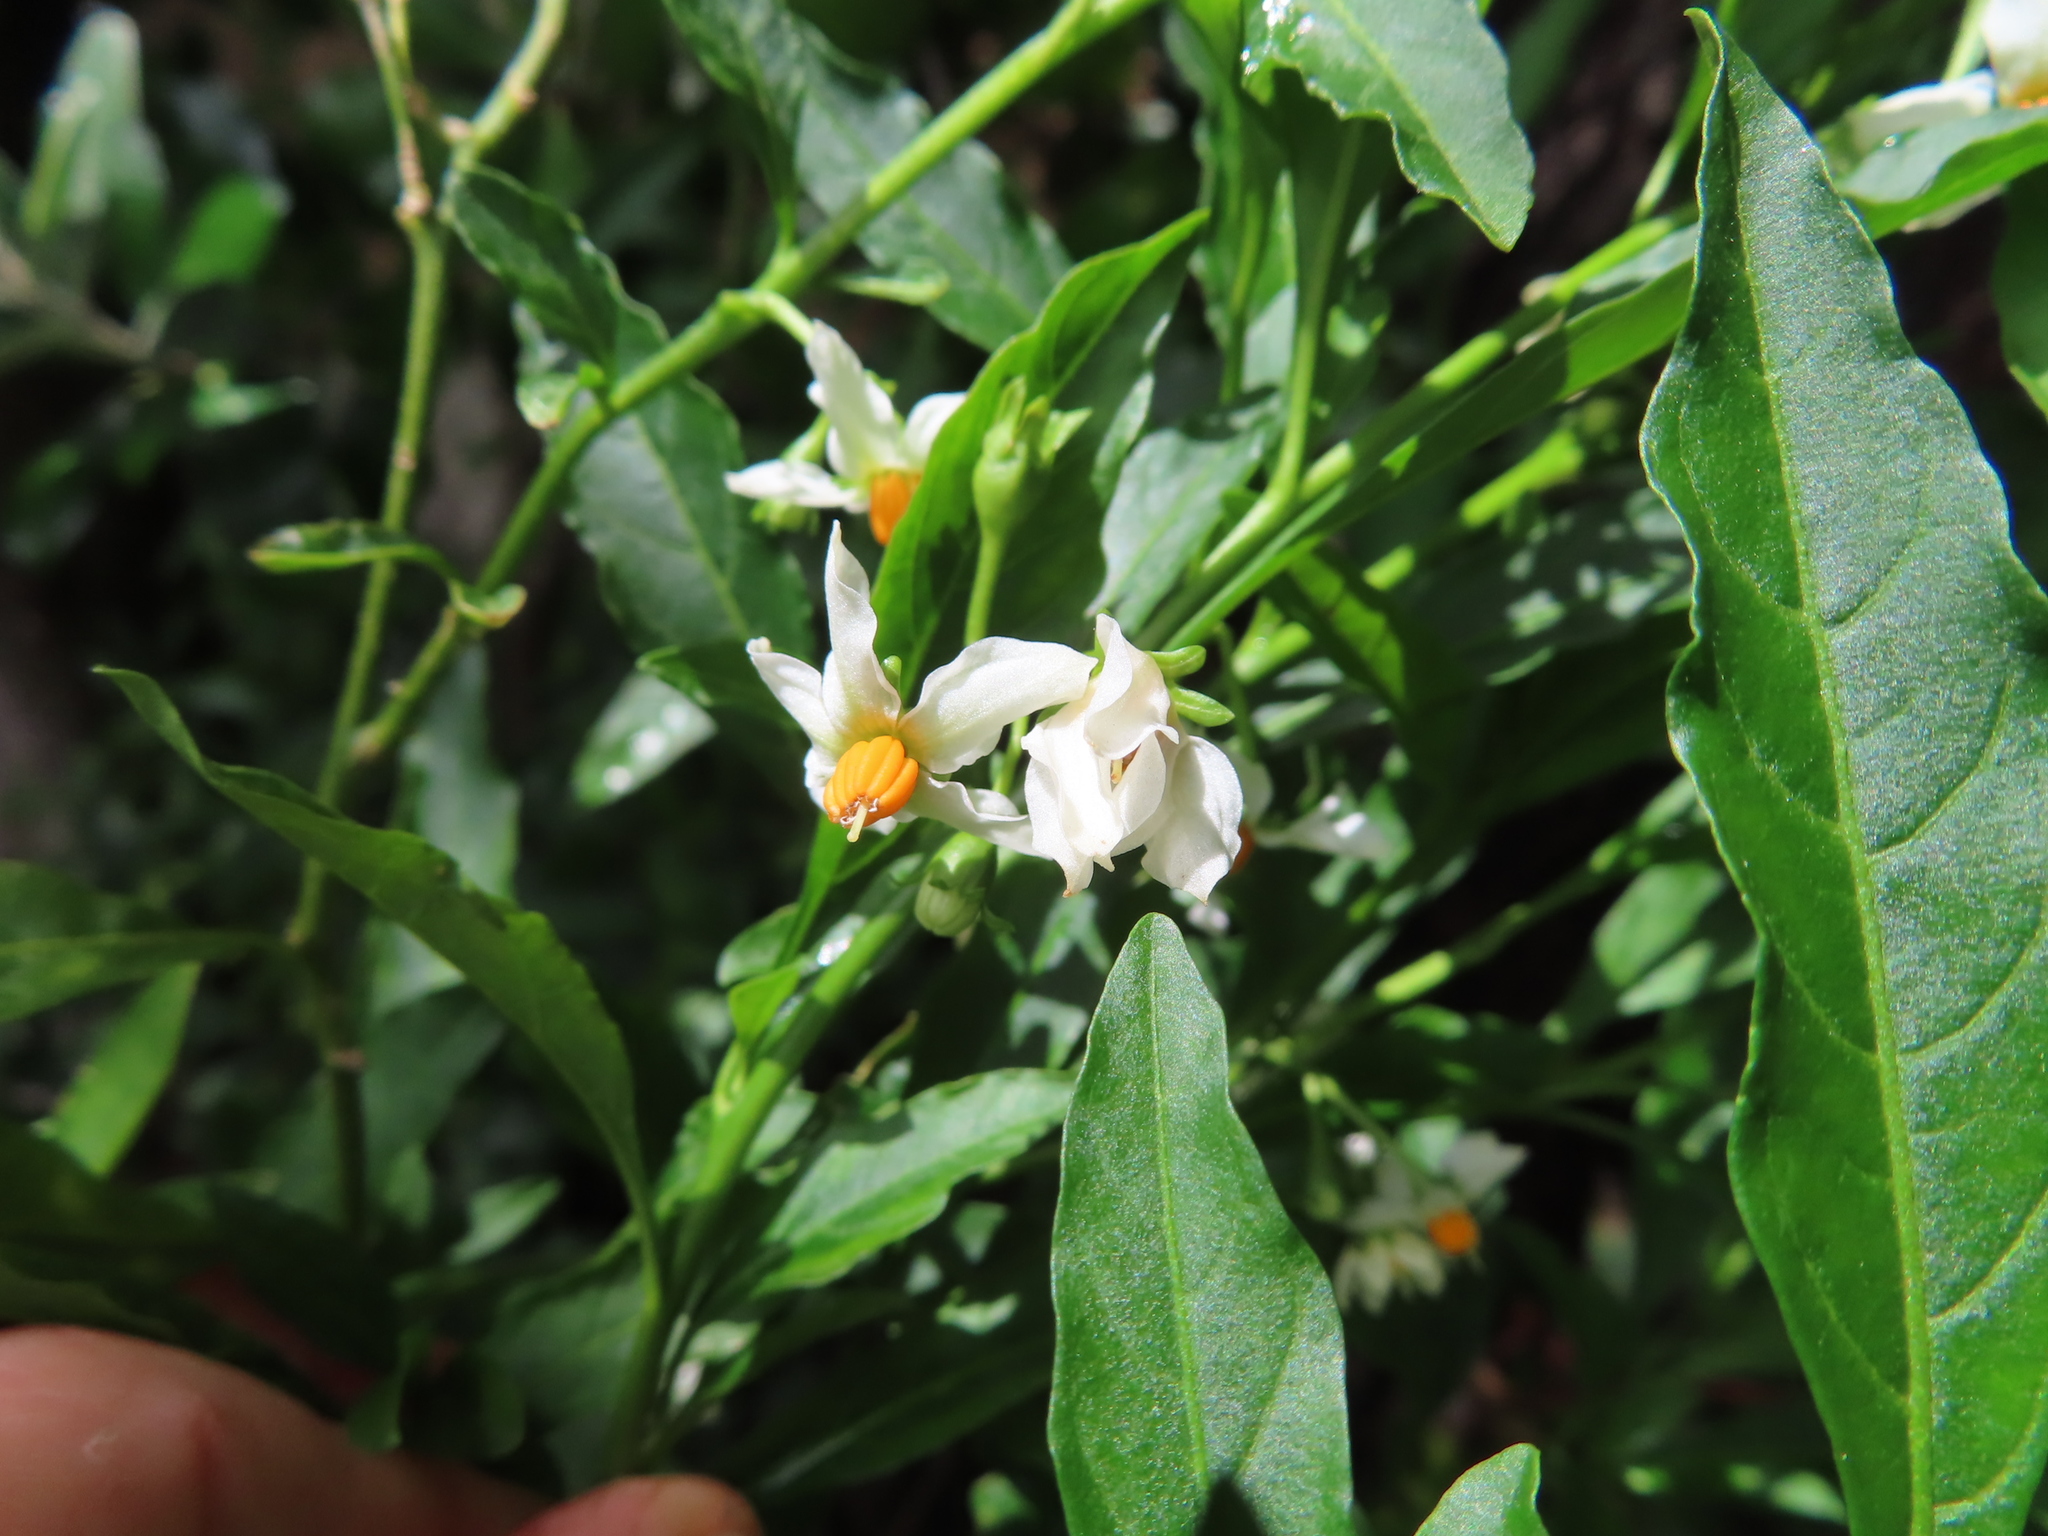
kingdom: Plantae
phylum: Tracheophyta
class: Magnoliopsida
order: Solanales
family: Solanaceae
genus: Solanum
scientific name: Solanum pseudocapsicum
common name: Jerusalem cherry
